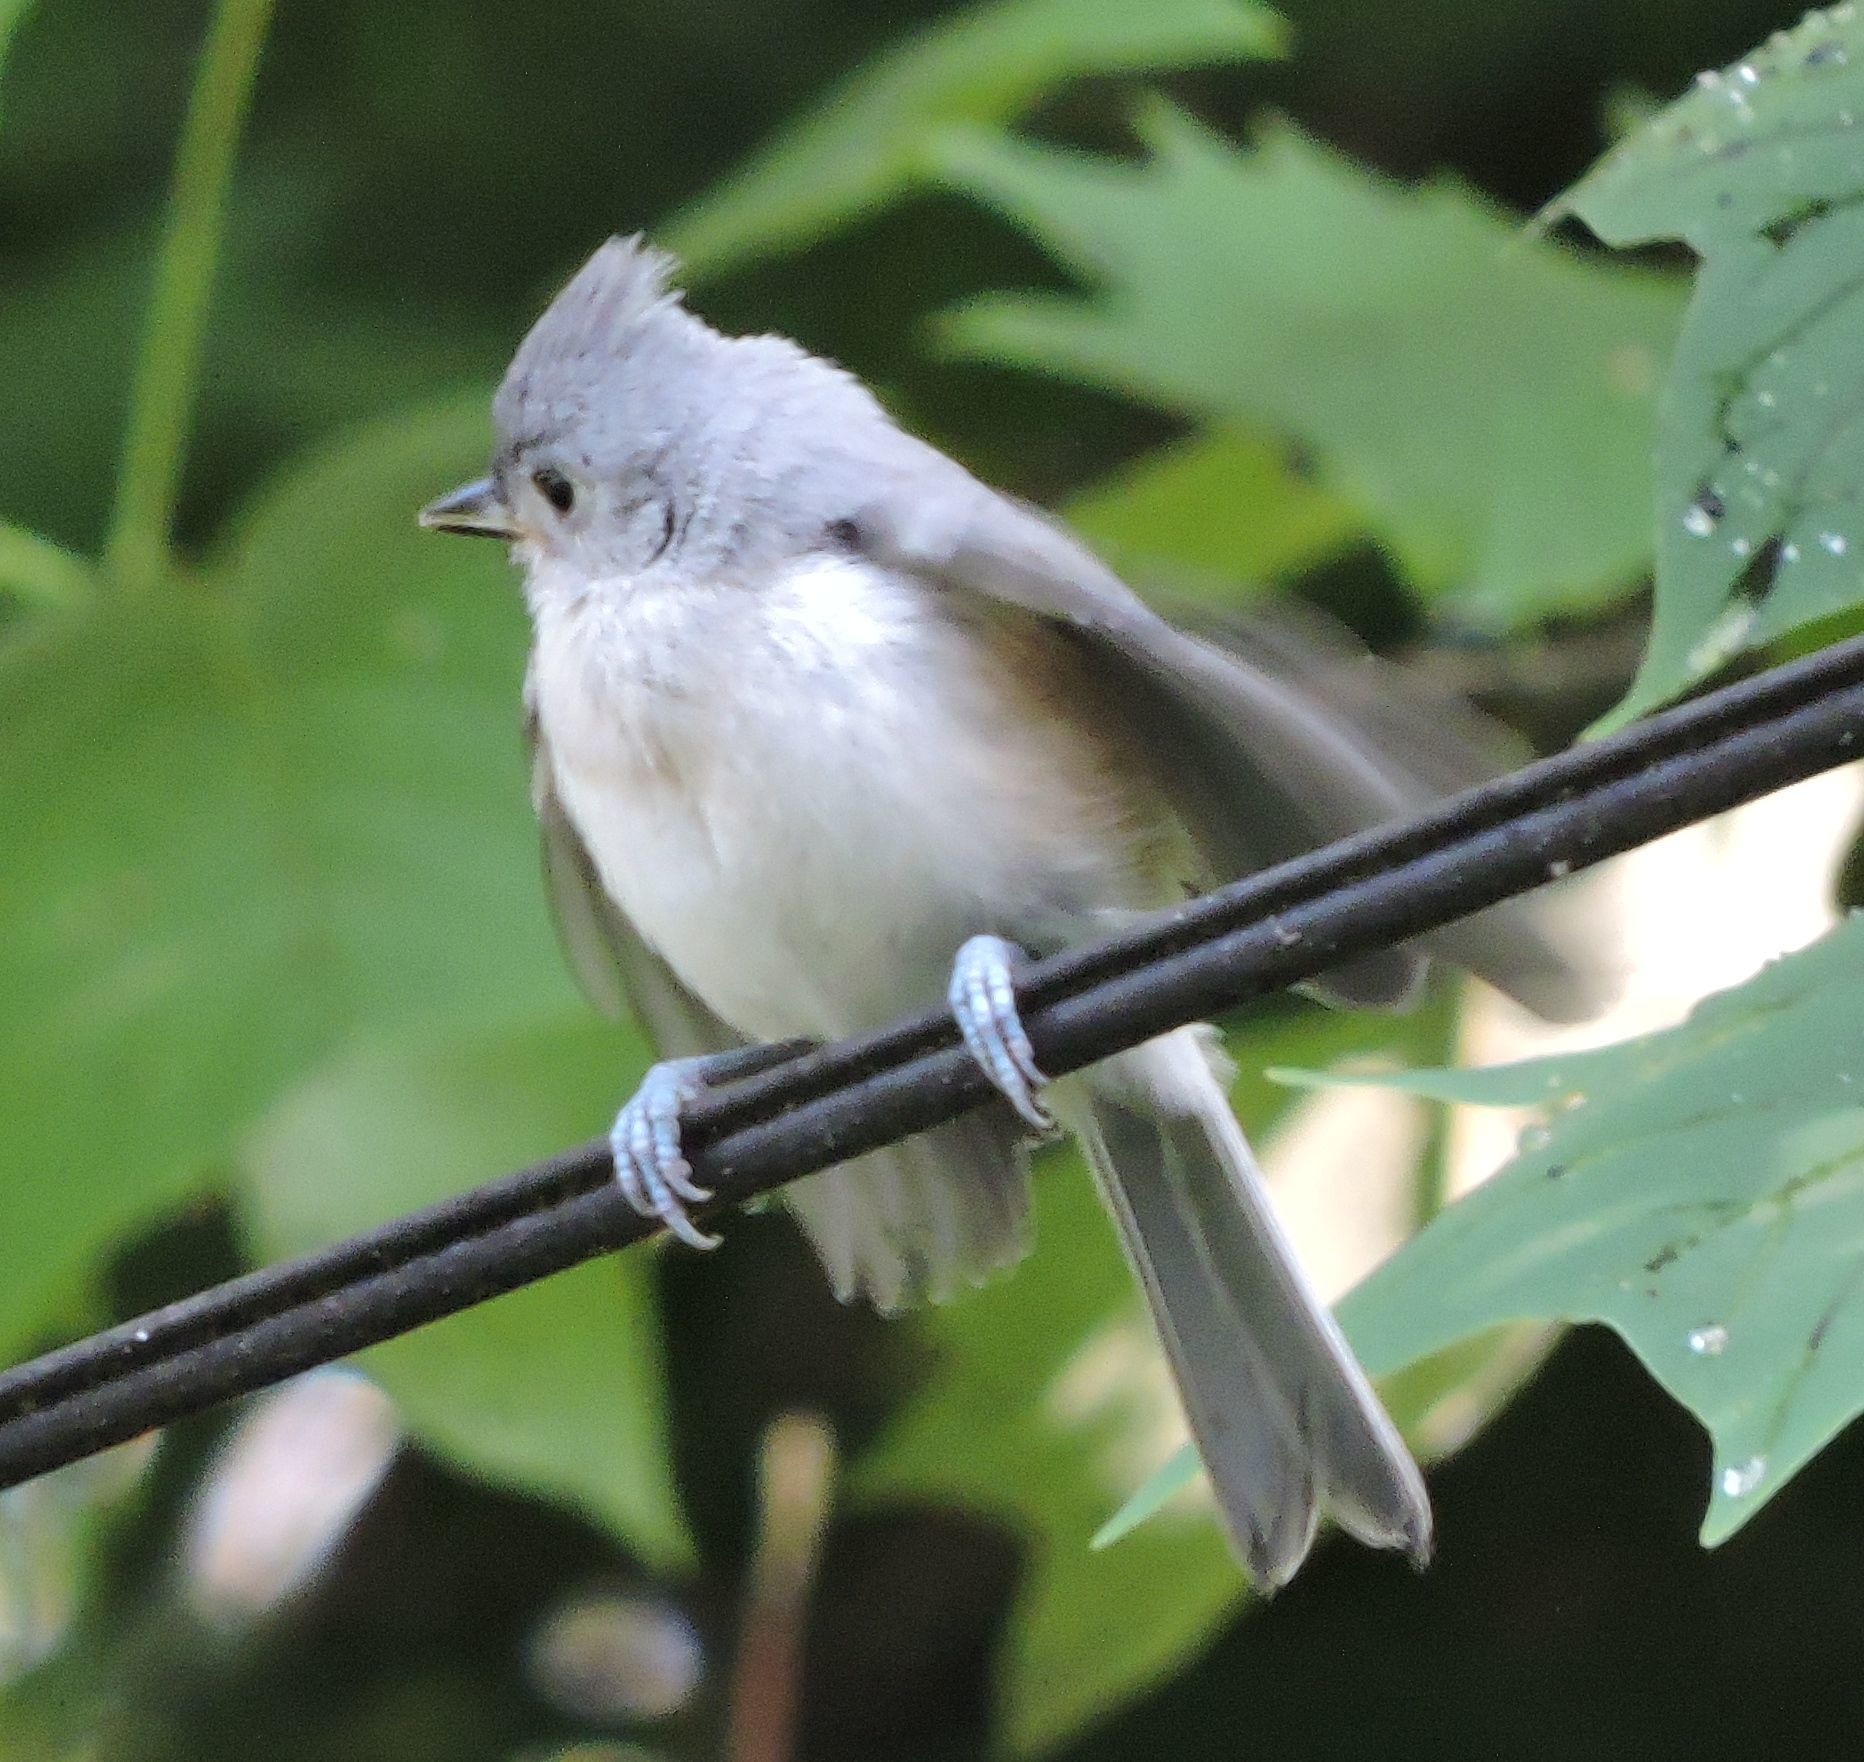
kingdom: Animalia
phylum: Chordata
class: Aves
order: Passeriformes
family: Paridae
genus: Baeolophus
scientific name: Baeolophus bicolor
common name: Tufted titmouse
